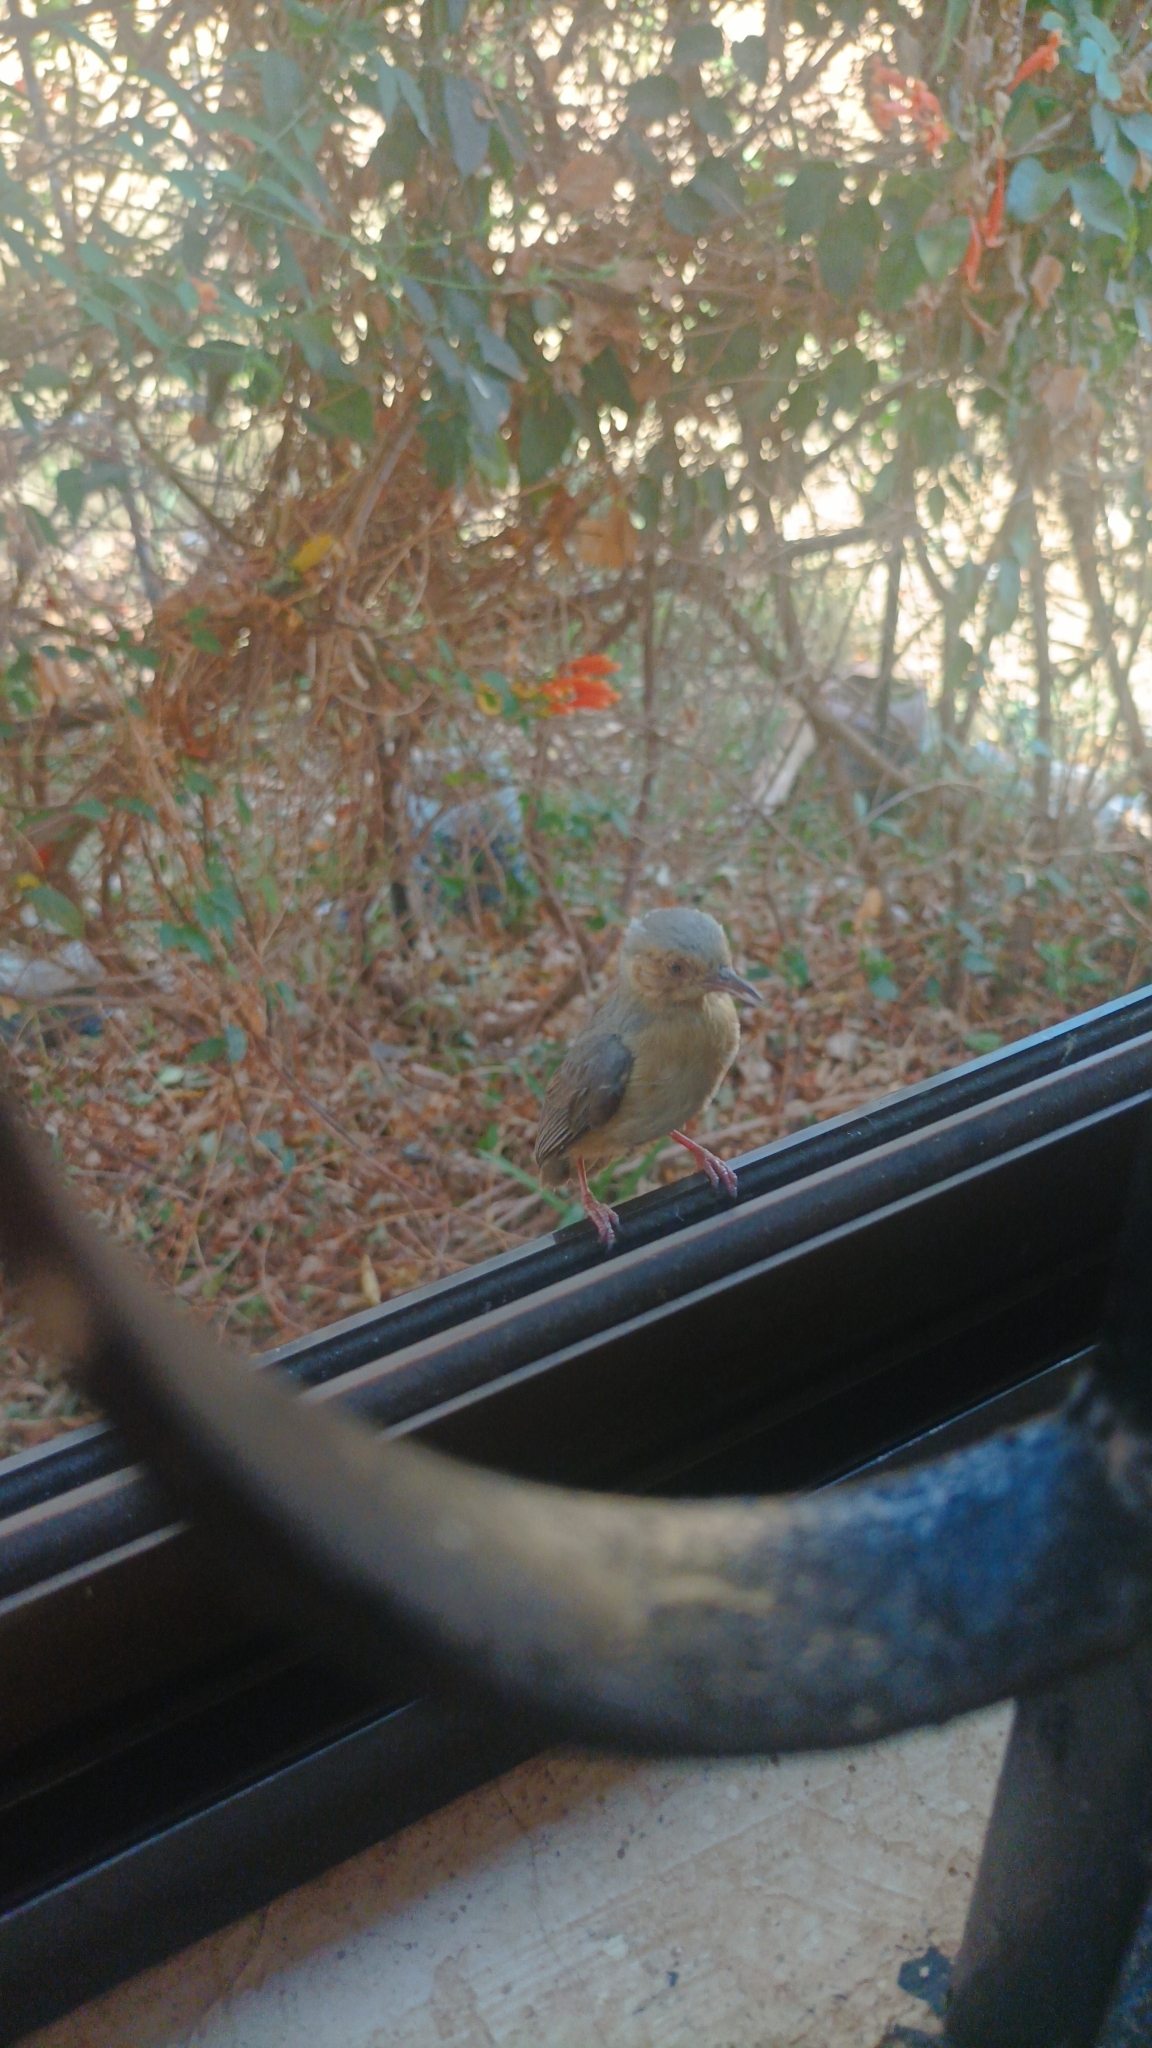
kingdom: Animalia
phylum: Chordata
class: Aves
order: Passeriformes
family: Macrosphenidae
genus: Sylvietta
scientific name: Sylvietta whytii
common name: Red-faced crombec
